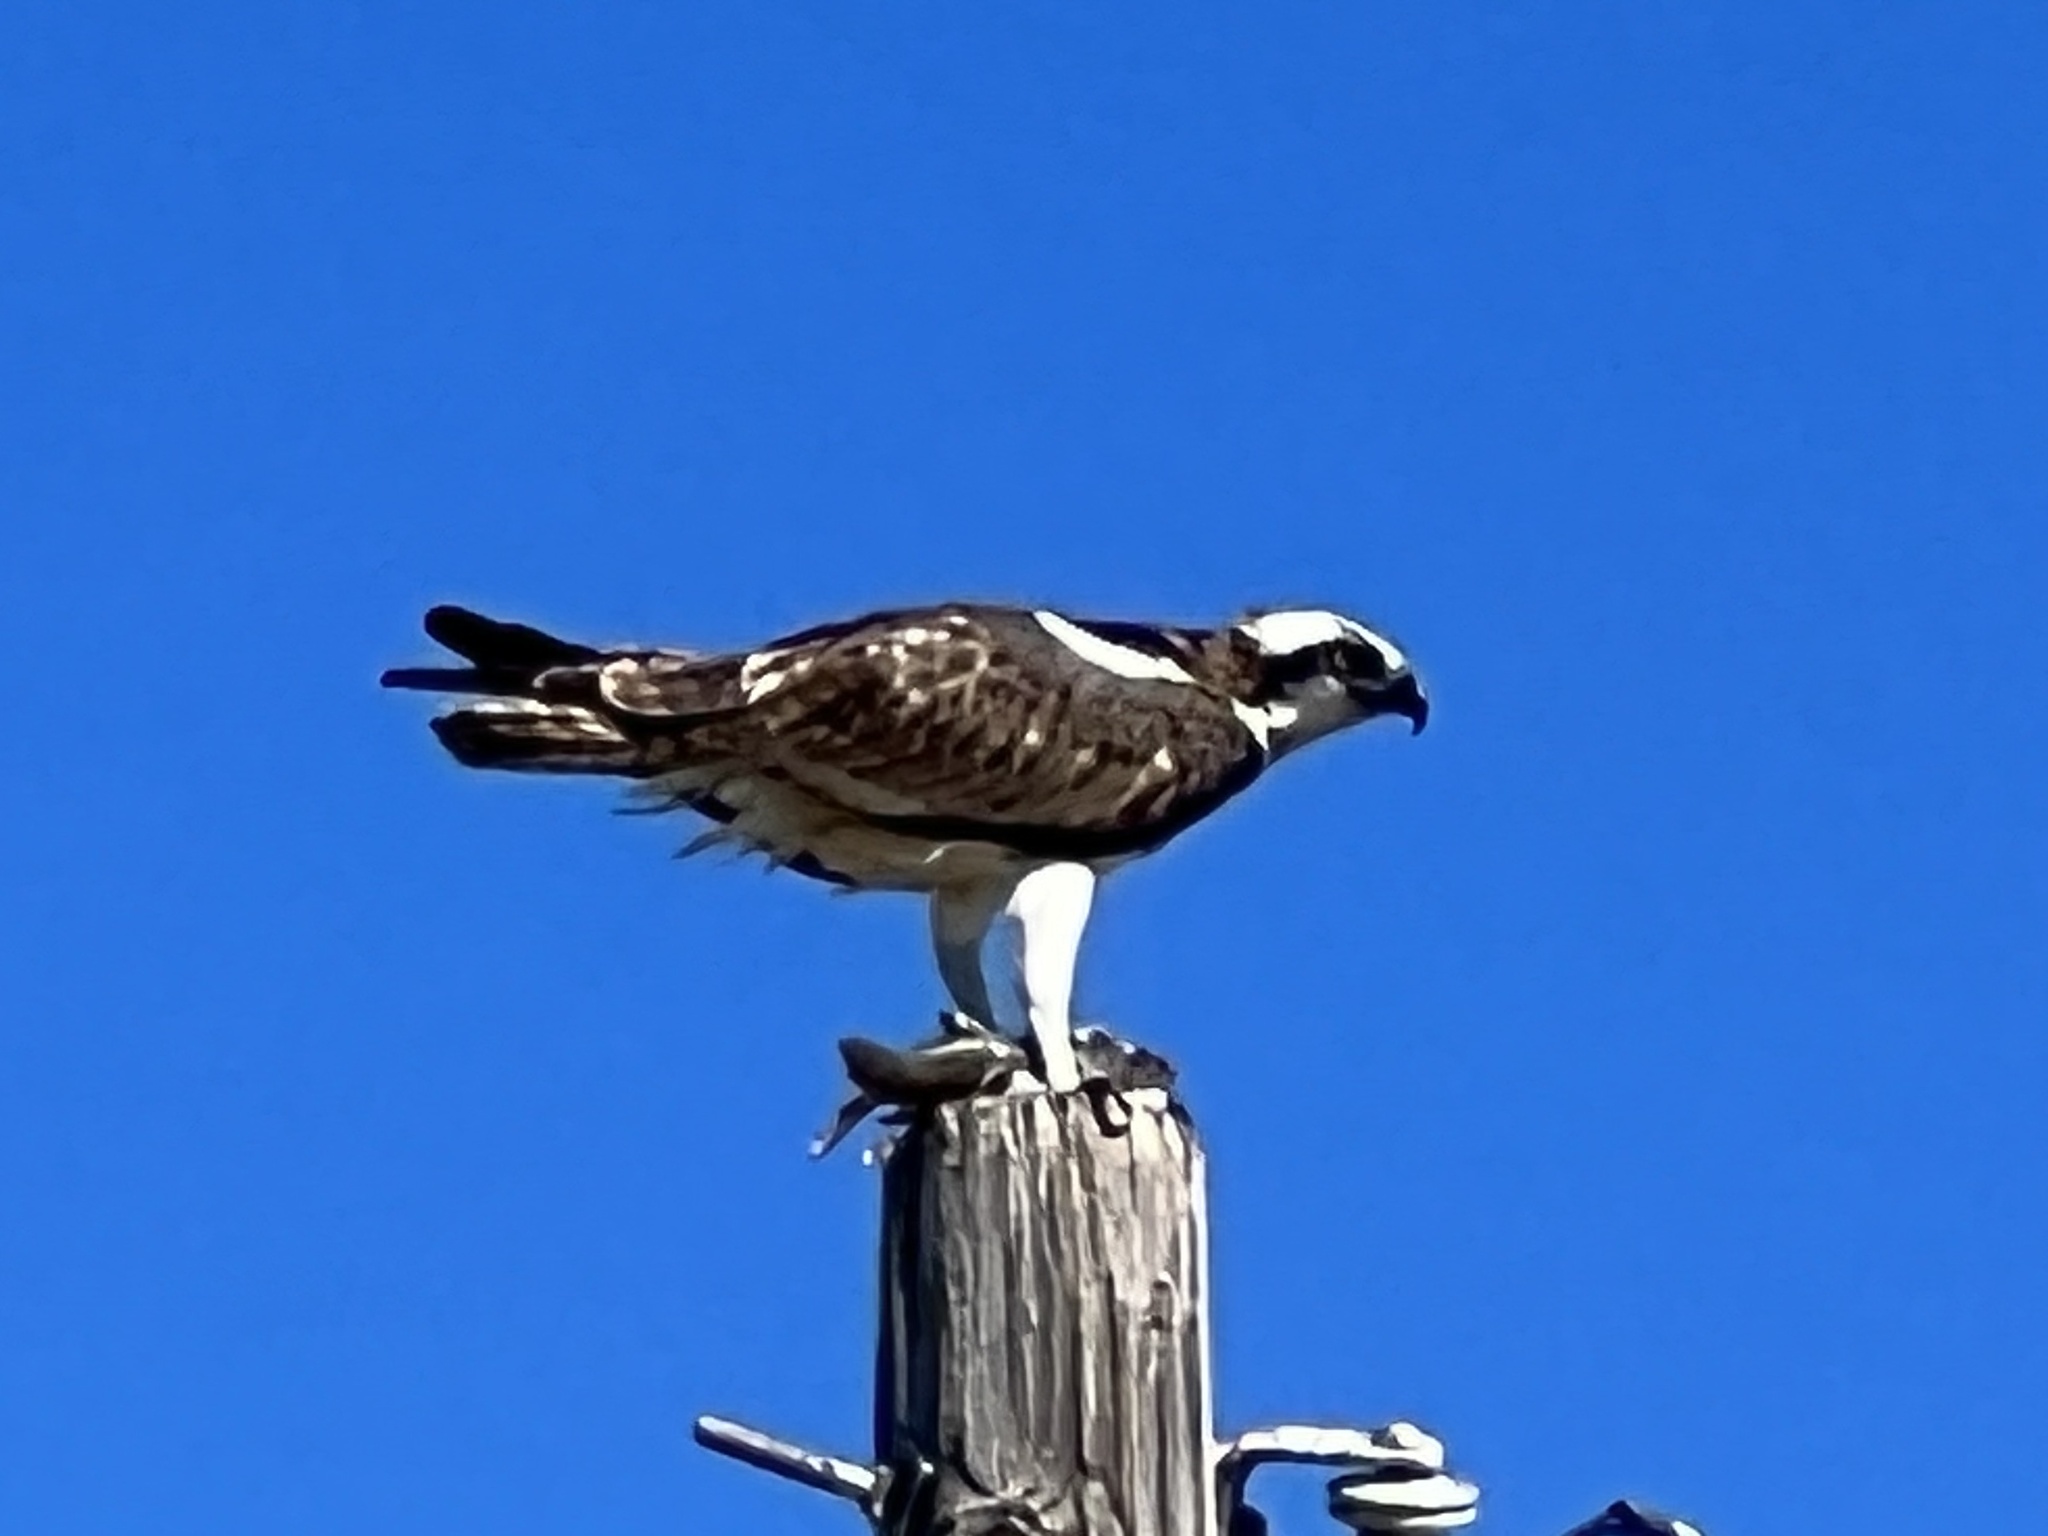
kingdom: Animalia
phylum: Chordata
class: Aves
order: Accipitriformes
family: Pandionidae
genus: Pandion
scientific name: Pandion haliaetus
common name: Osprey
